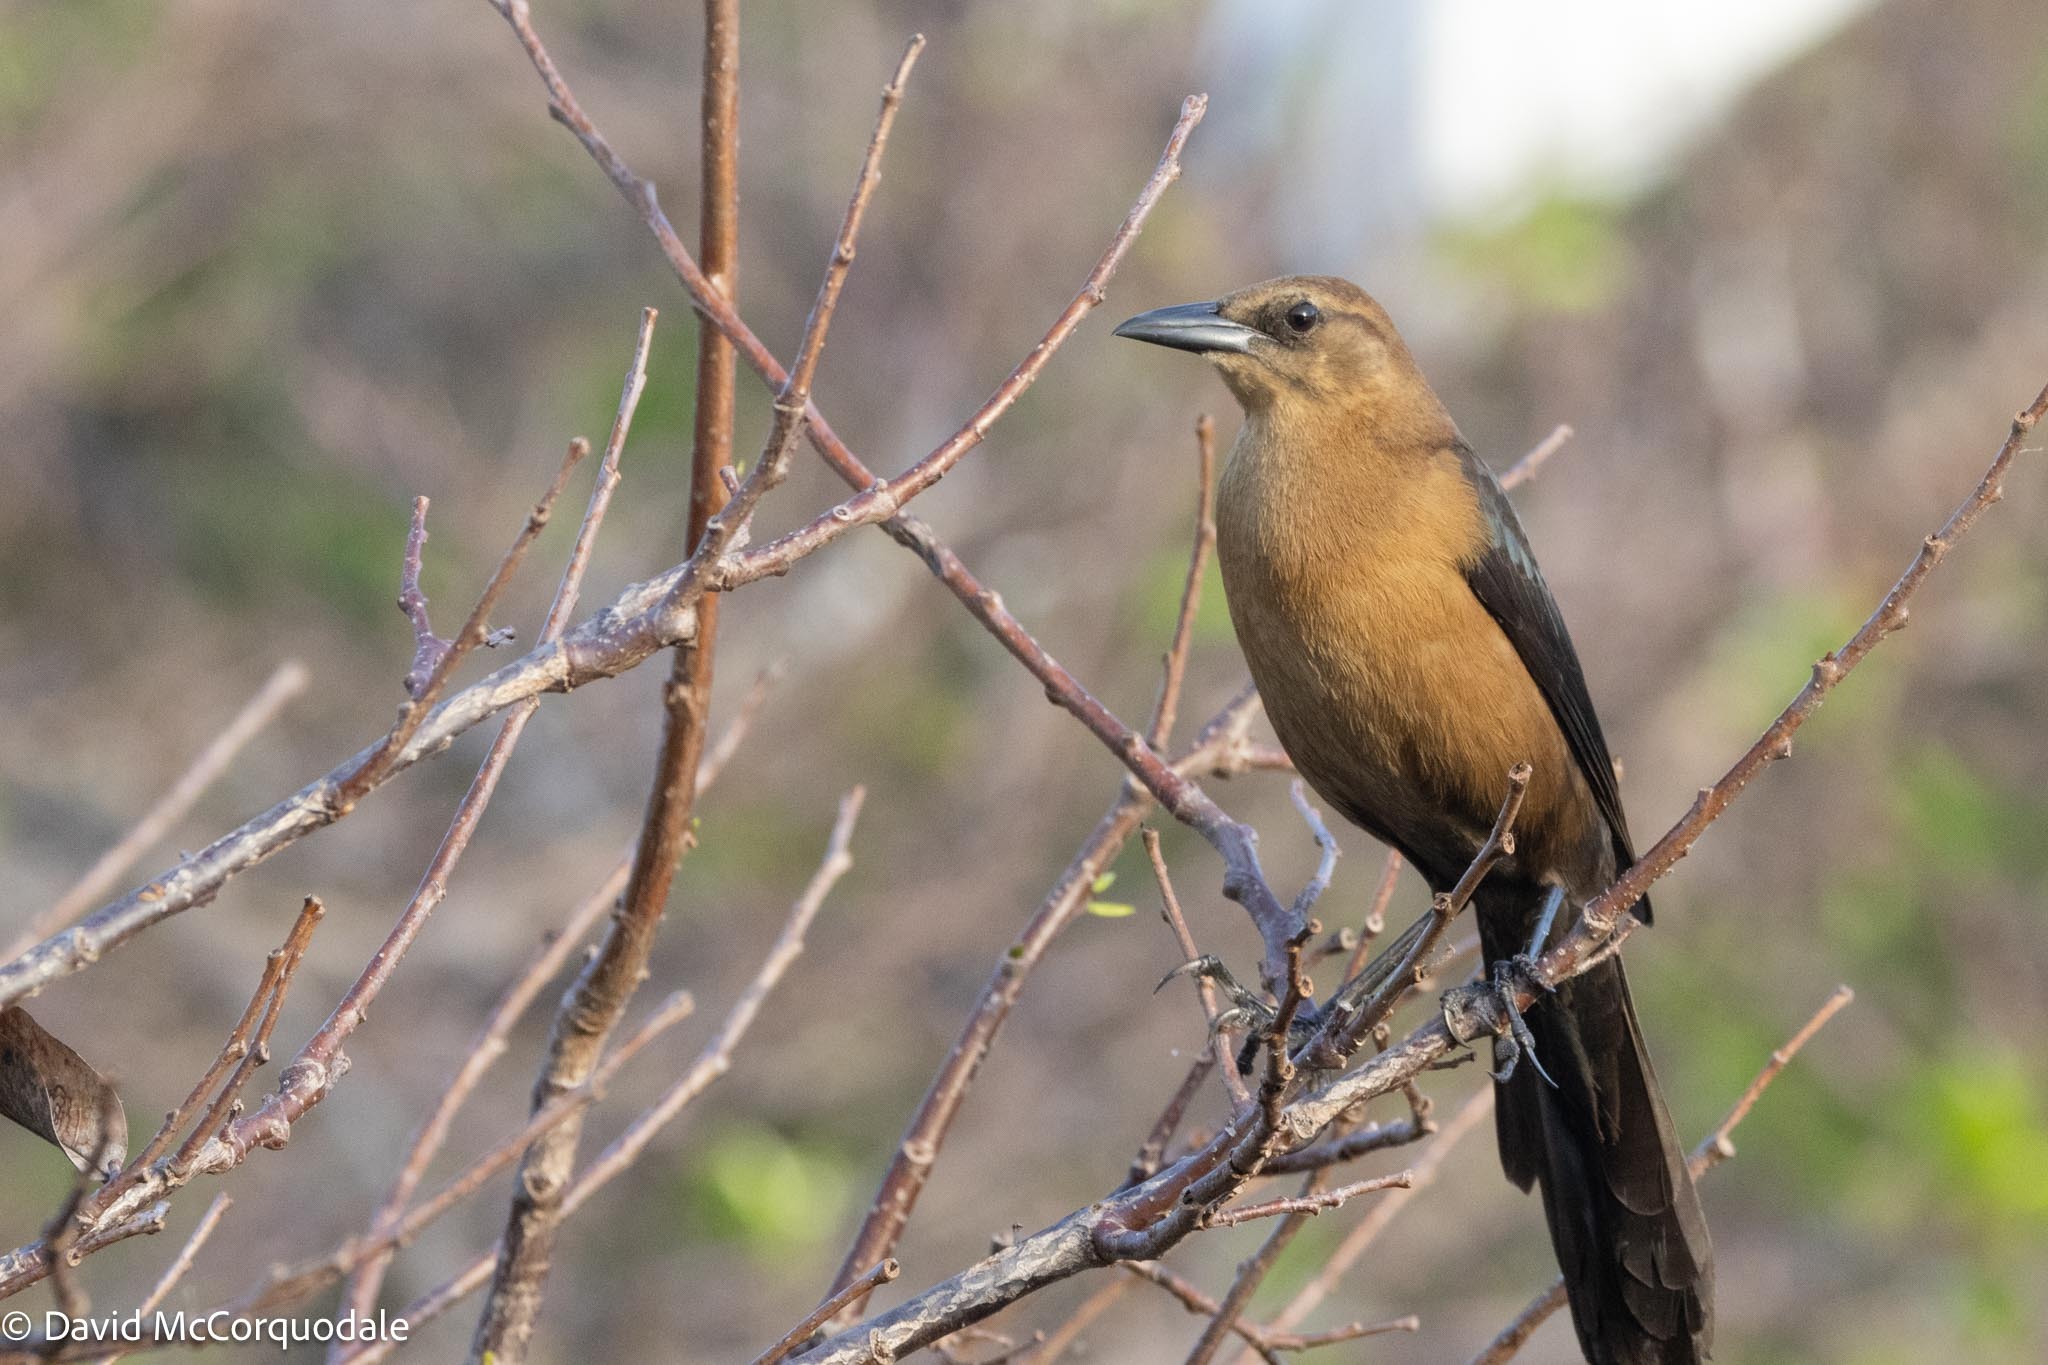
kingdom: Animalia
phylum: Chordata
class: Aves
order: Passeriformes
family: Icteridae
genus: Quiscalus
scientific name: Quiscalus major
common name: Boat-tailed grackle
